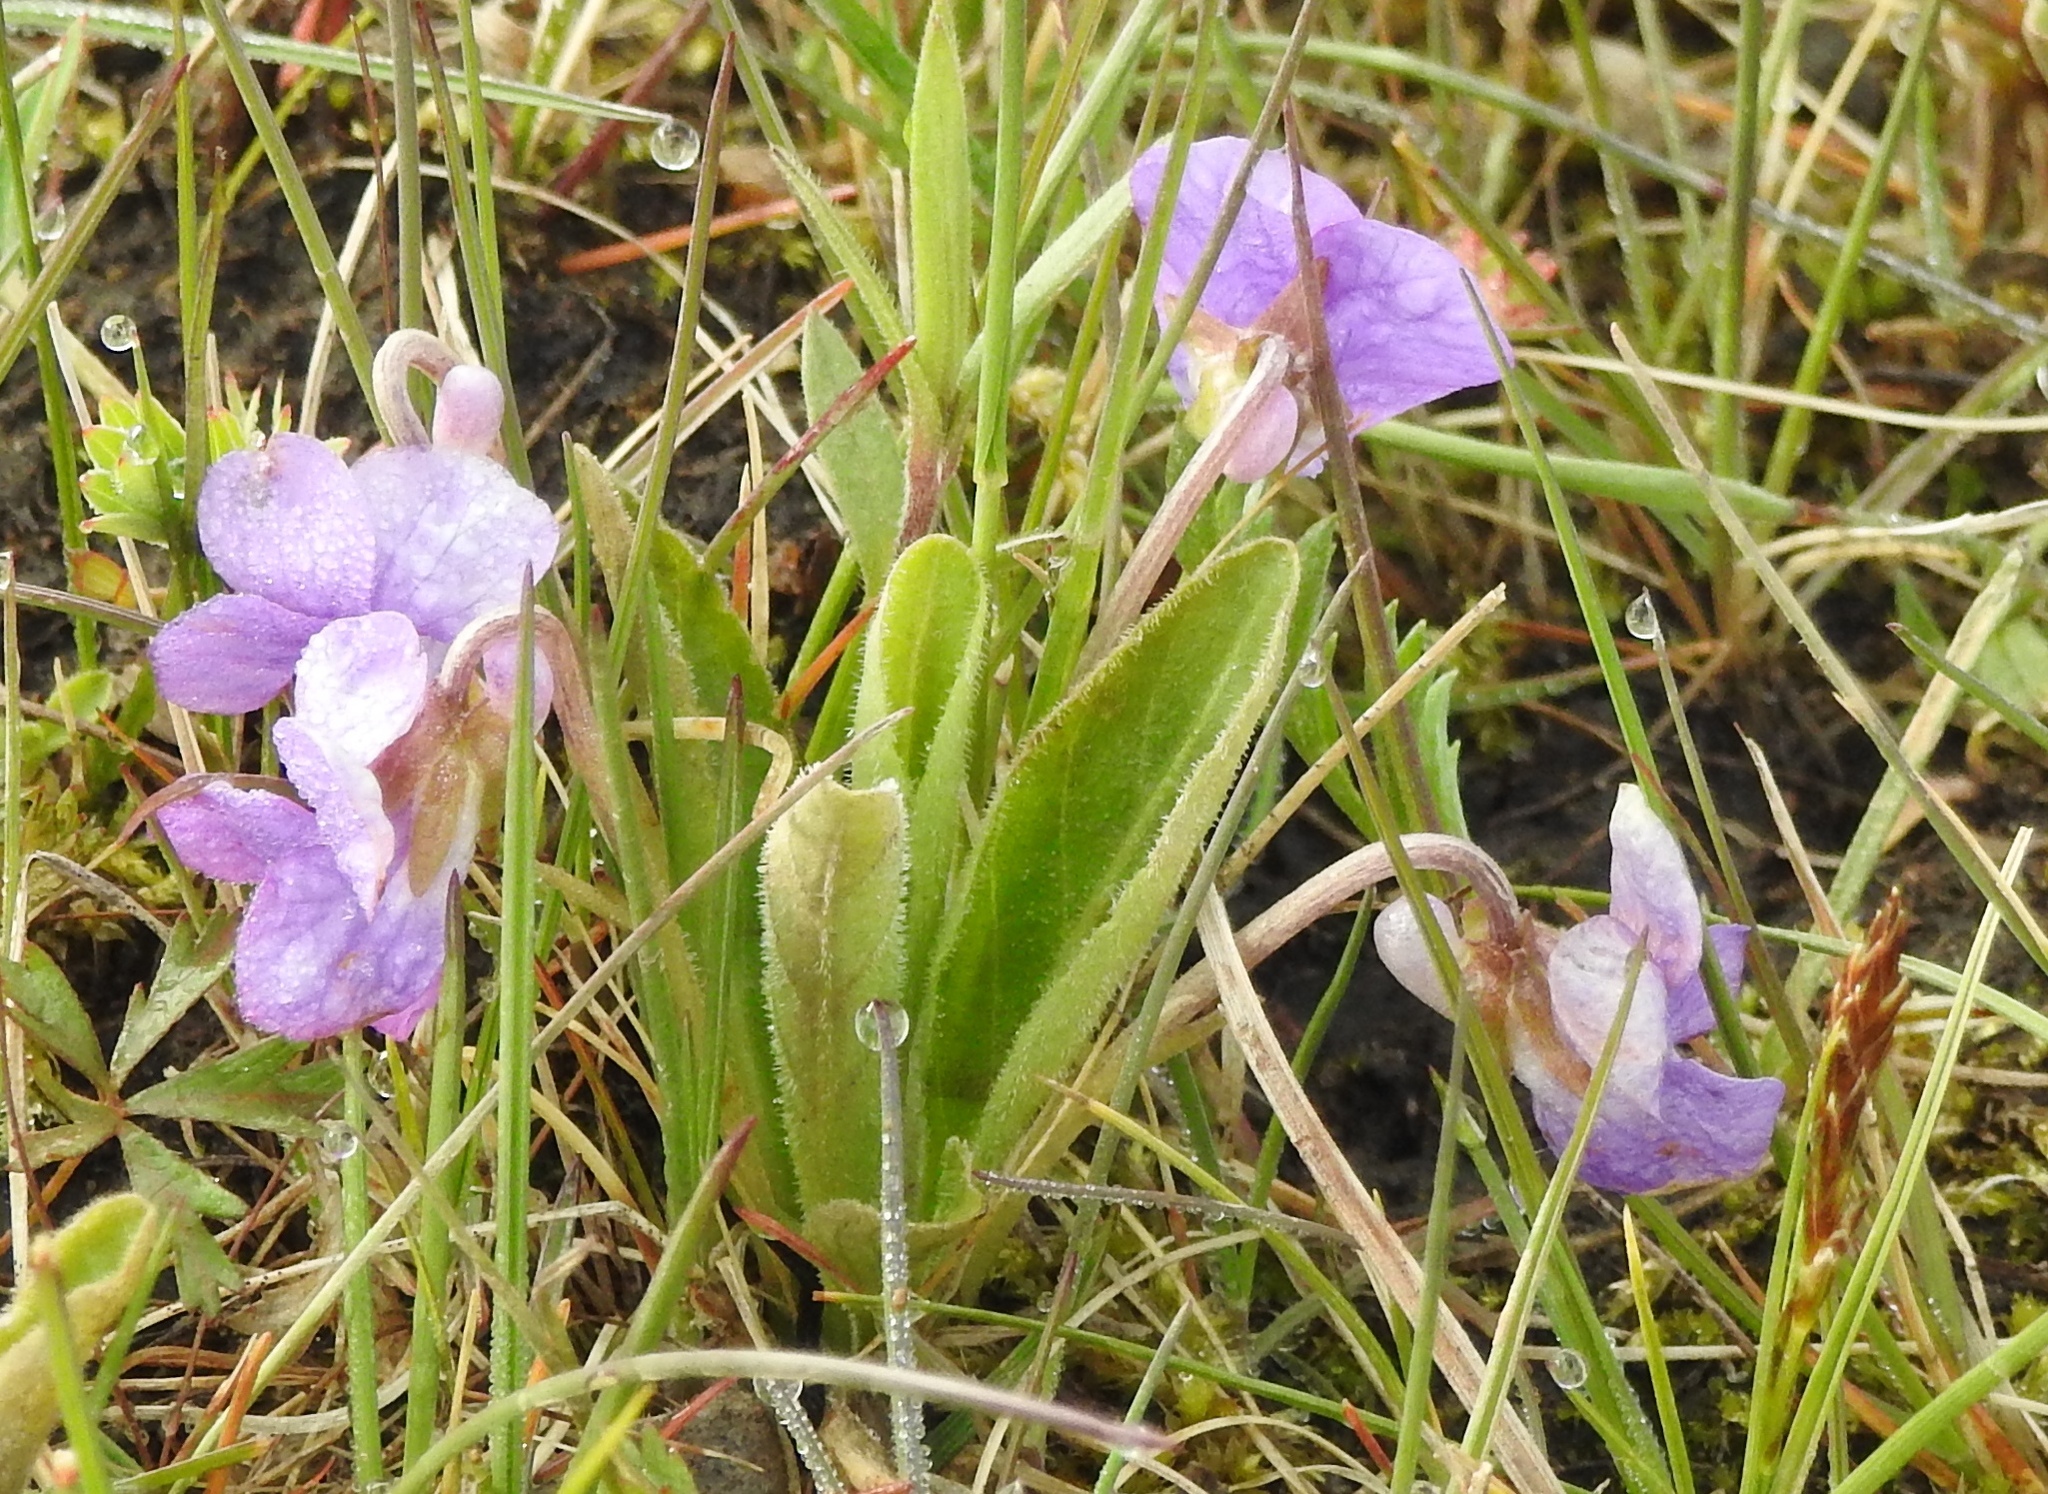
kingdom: Plantae
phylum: Tracheophyta
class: Magnoliopsida
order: Malpighiales
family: Violaceae
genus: Viola
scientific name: Viola gmeliniana
